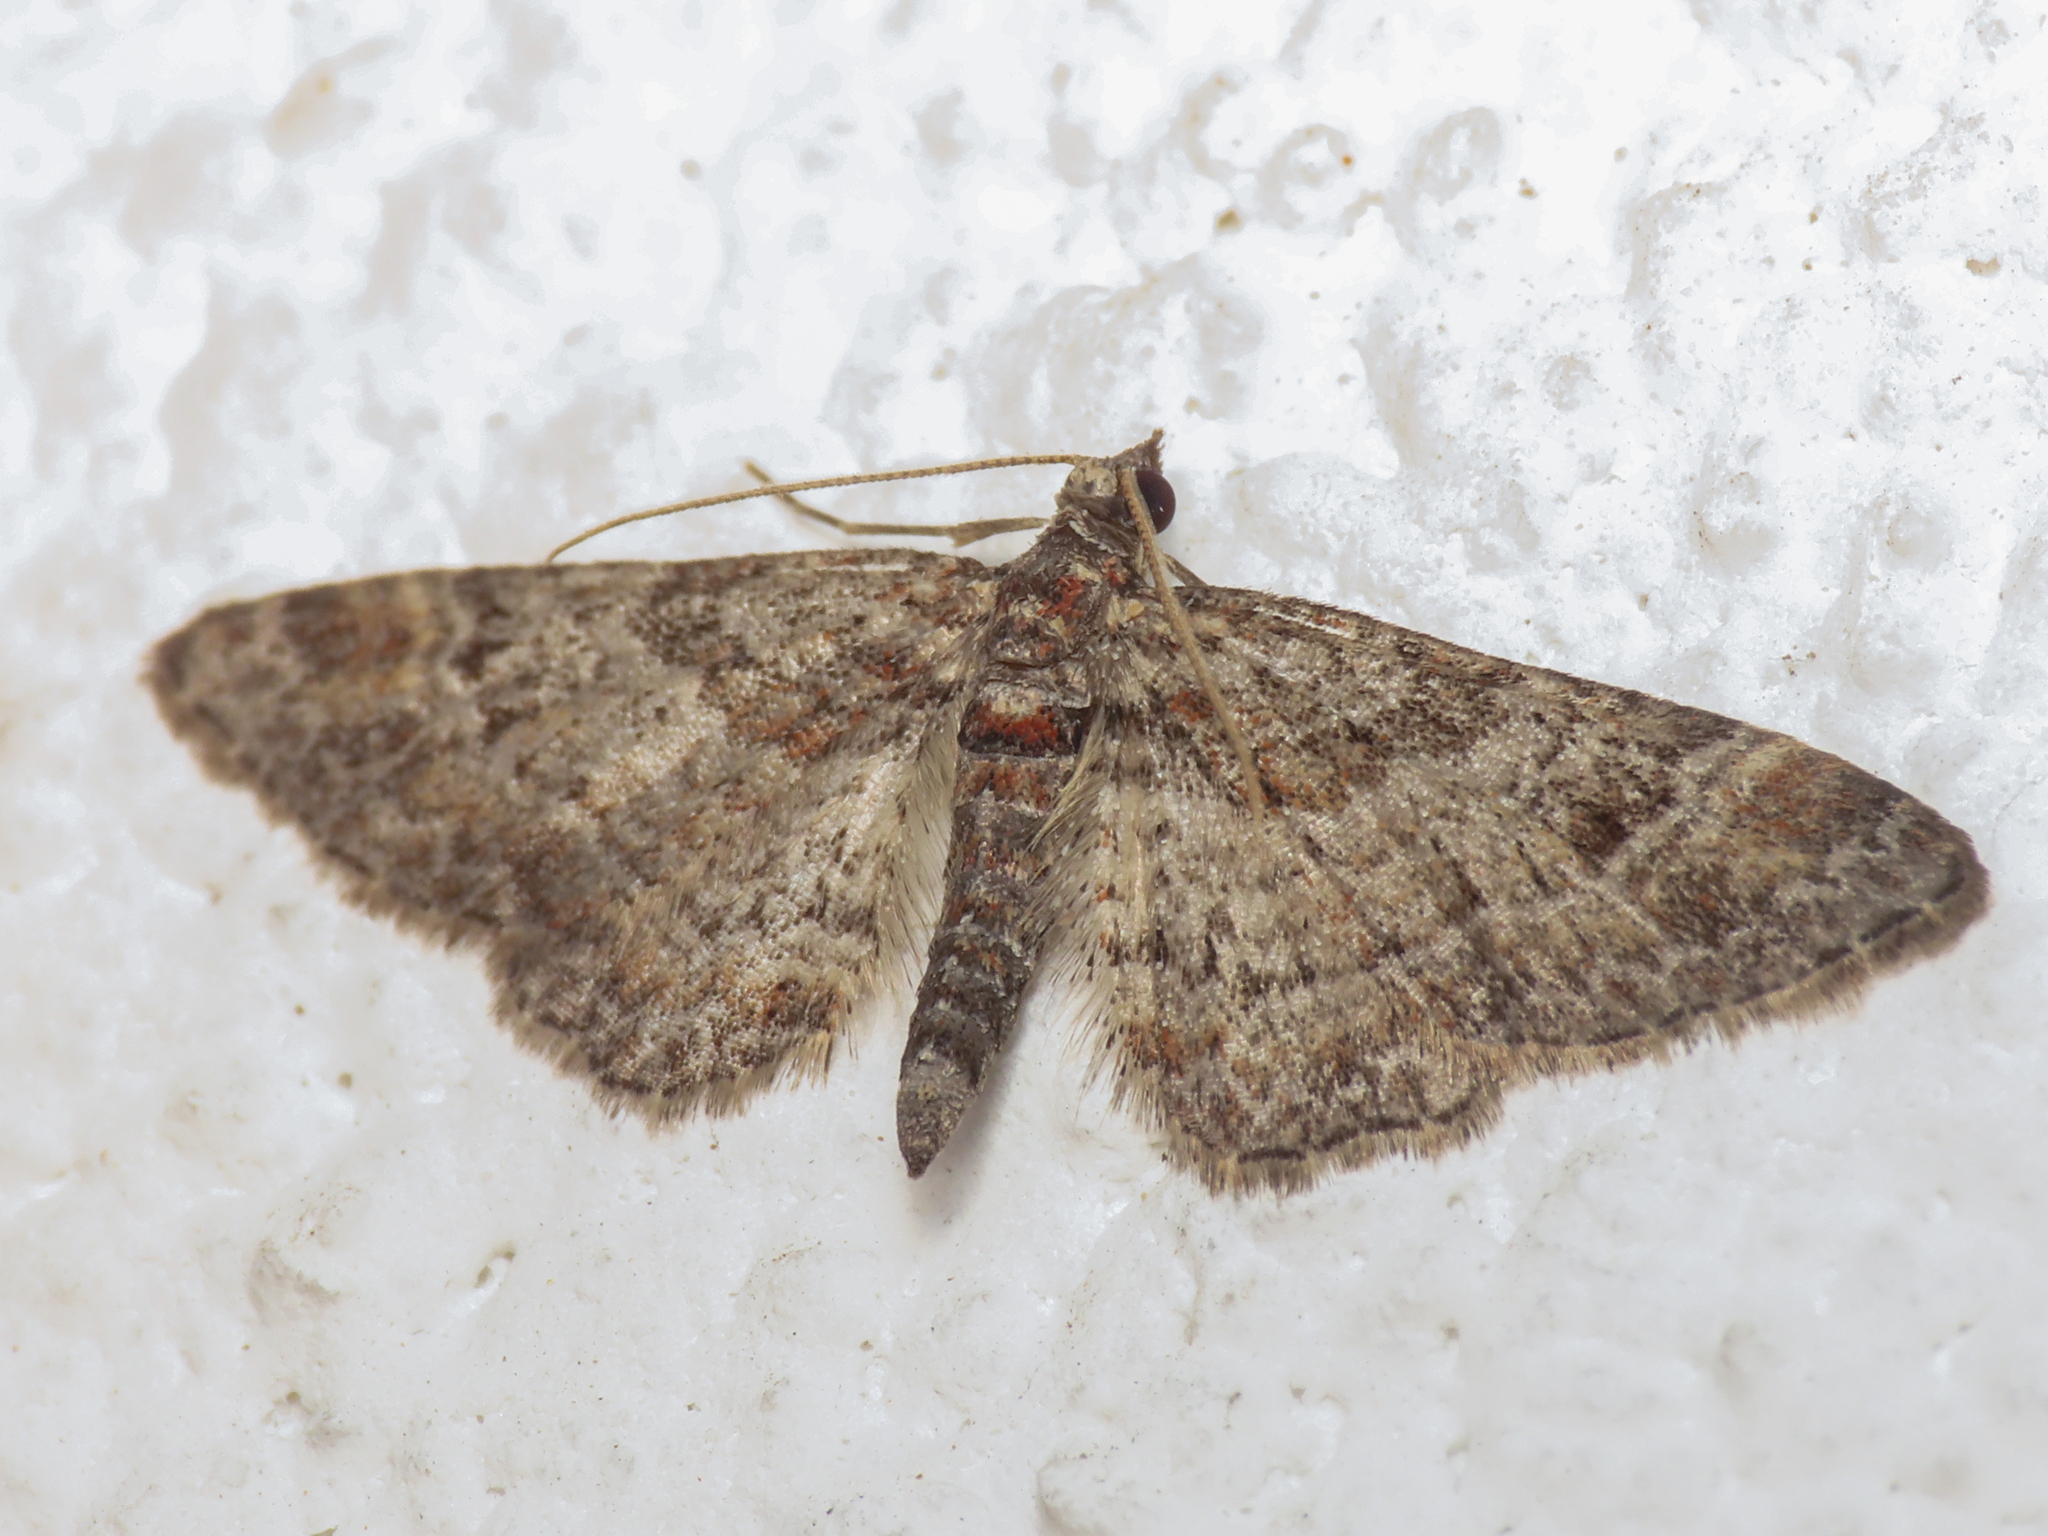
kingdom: Animalia
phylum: Arthropoda
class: Insecta
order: Lepidoptera
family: Geometridae
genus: Gymnoscelis
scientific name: Gymnoscelis rufifasciata
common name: Double-striped pug
